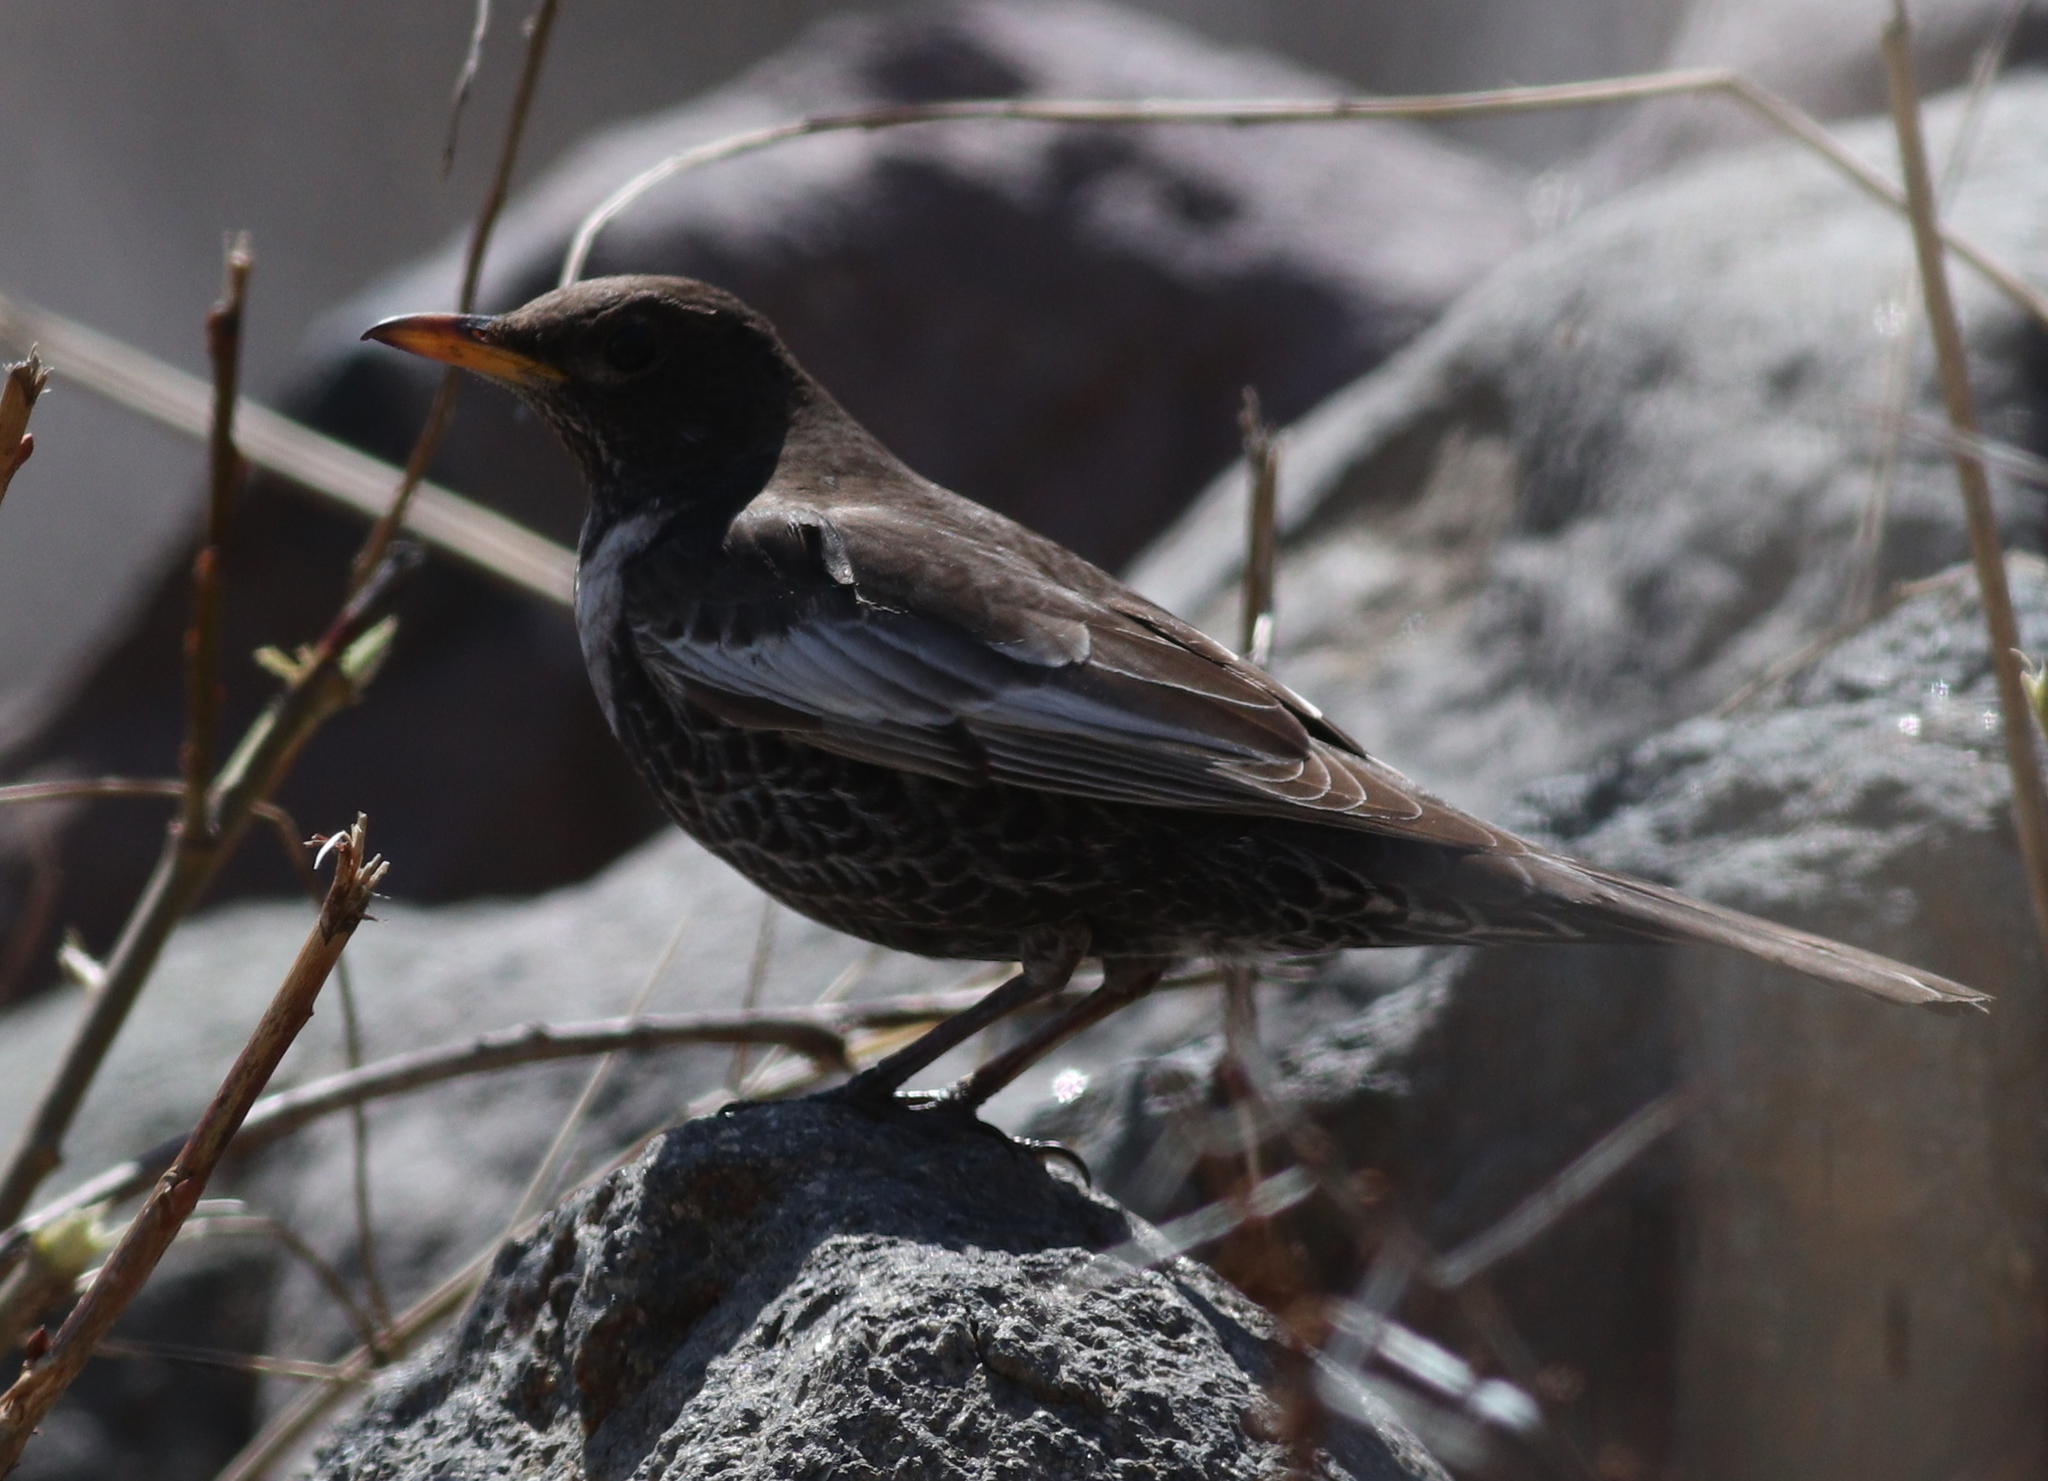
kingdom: Animalia
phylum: Chordata
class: Aves
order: Passeriformes
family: Turdidae
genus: Turdus
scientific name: Turdus torquatus
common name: Ring ouzel
